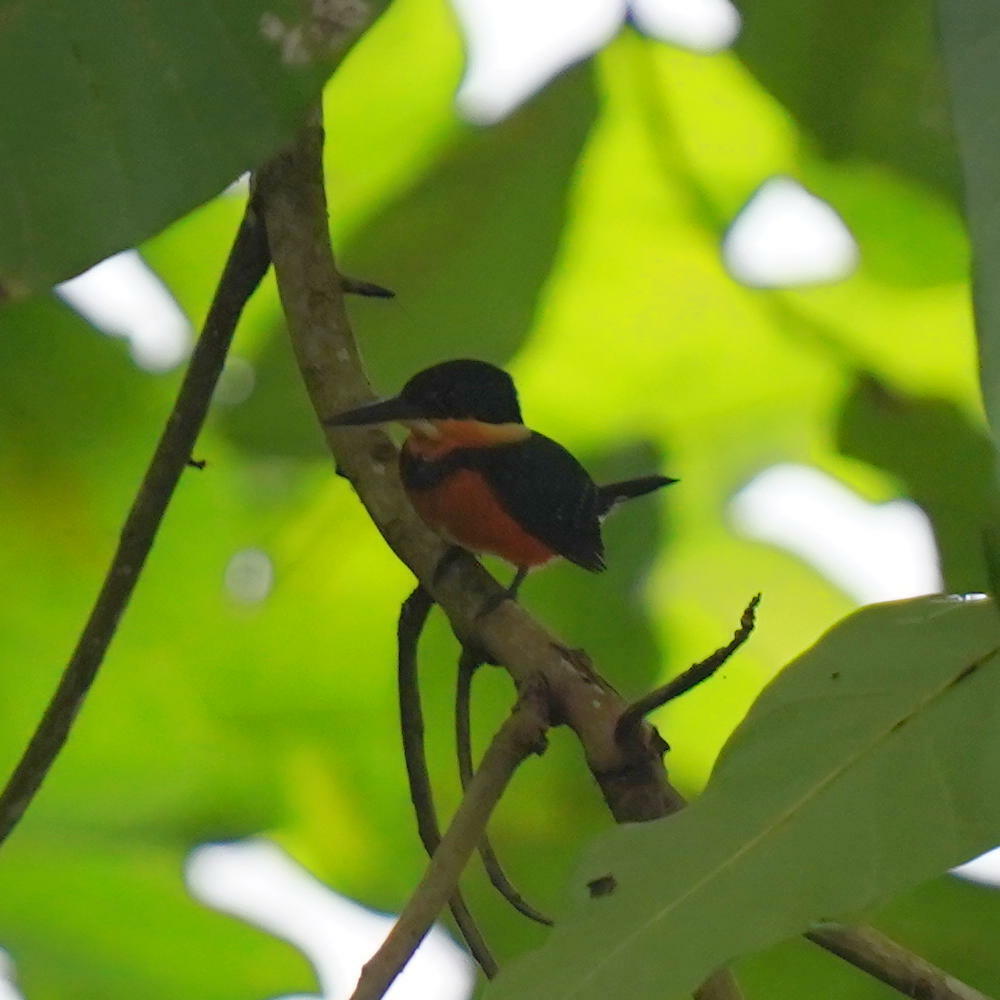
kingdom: Animalia
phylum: Chordata
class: Aves
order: Coraciiformes
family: Alcedinidae
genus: Chloroceryle
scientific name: Chloroceryle aenea
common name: American pygmy kingfisher
